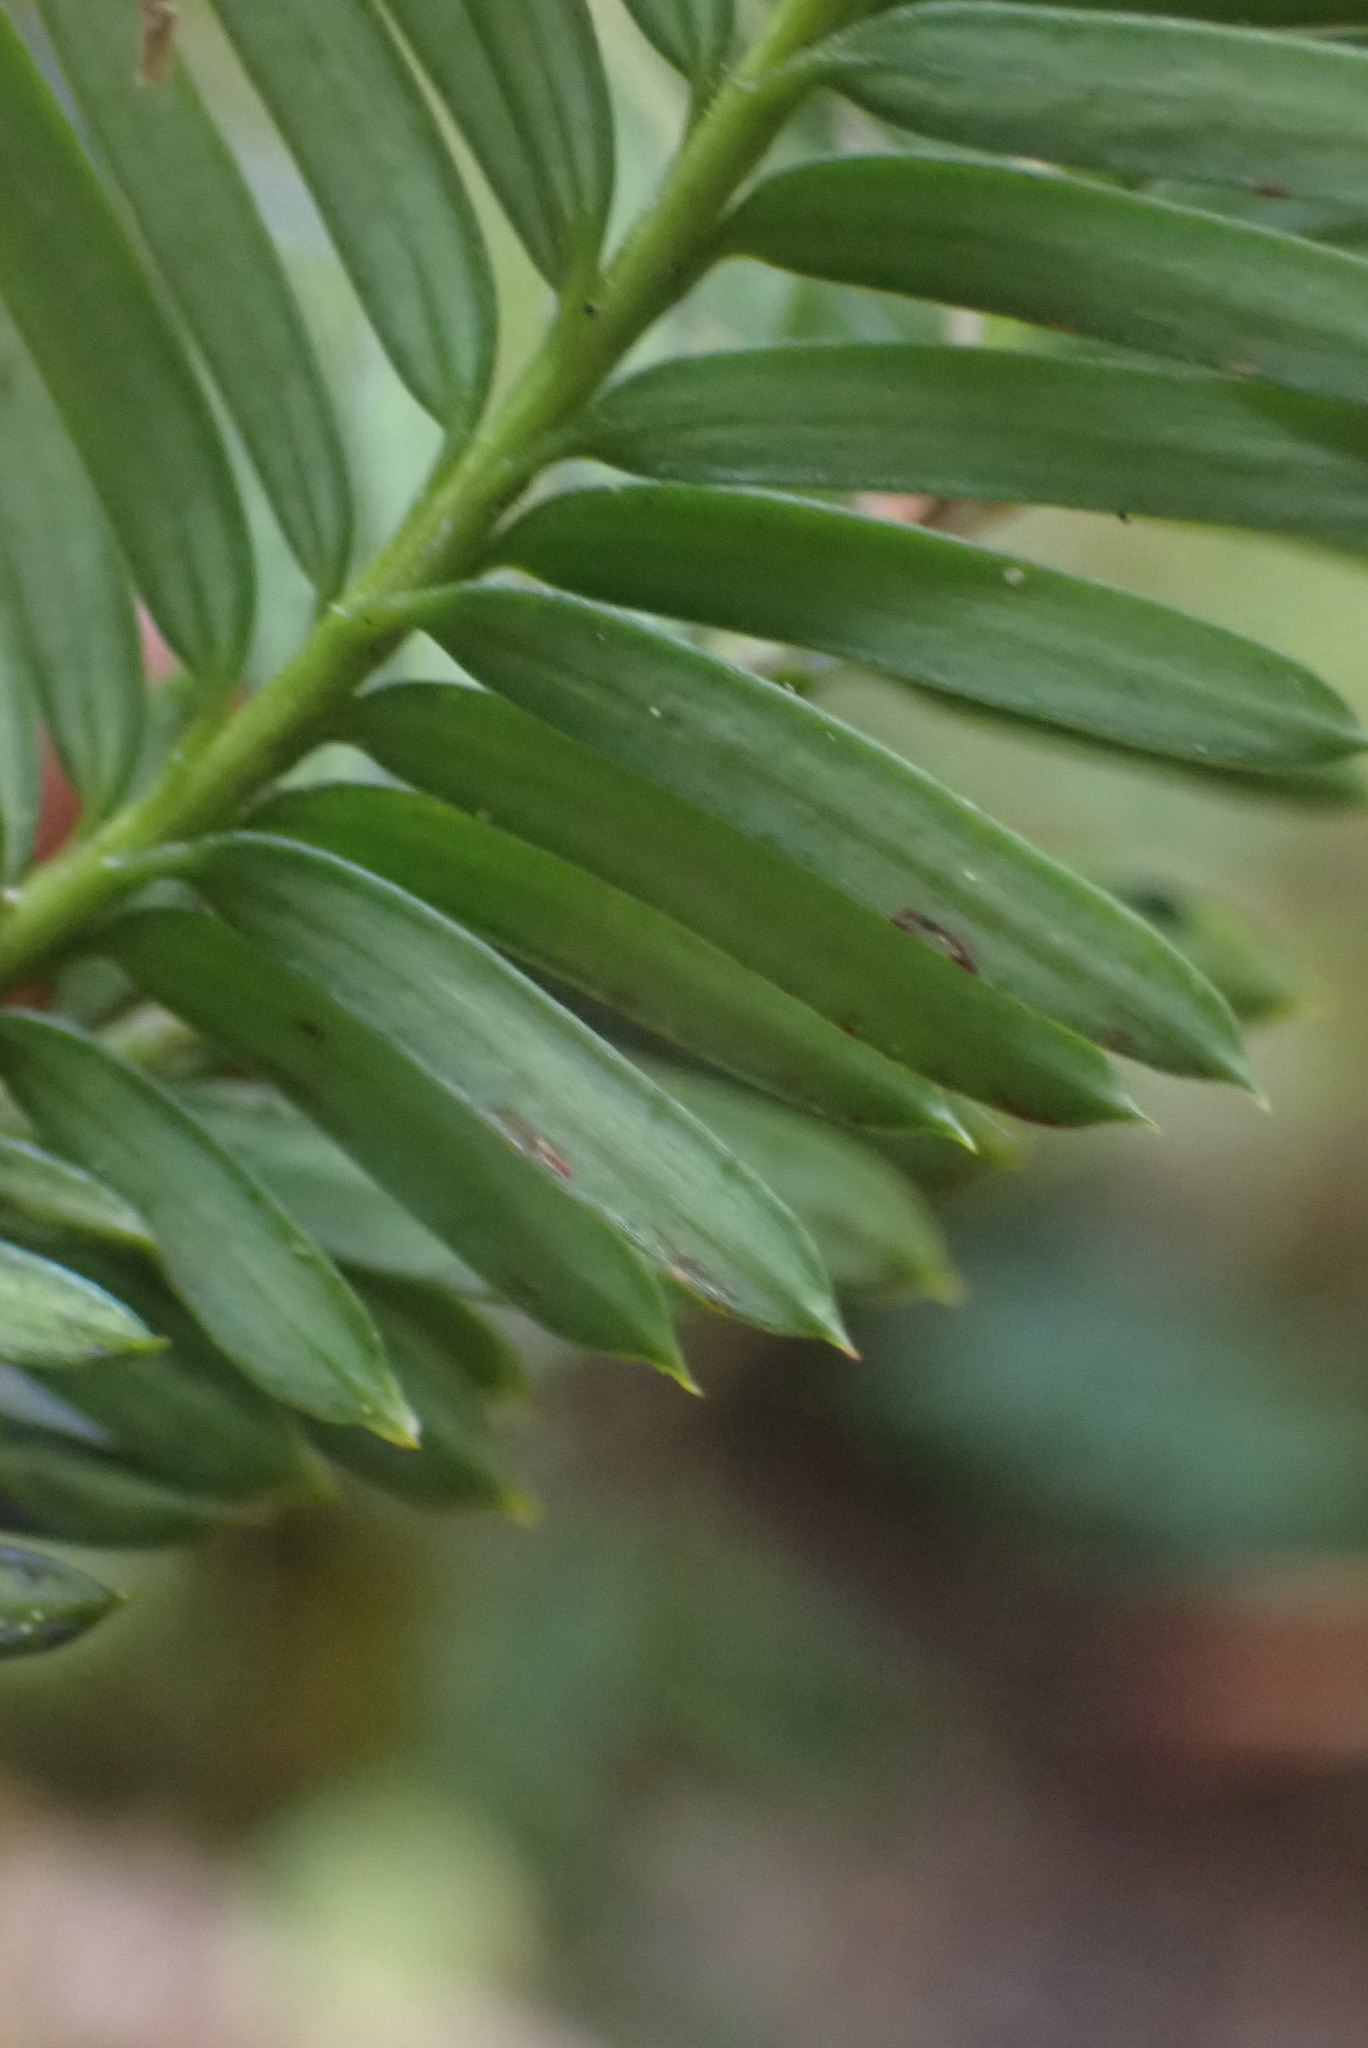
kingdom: Plantae
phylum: Tracheophyta
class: Pinopsida
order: Pinales
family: Taxaceae
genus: Taxus
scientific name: Taxus brevifolia
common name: Pacific yew
